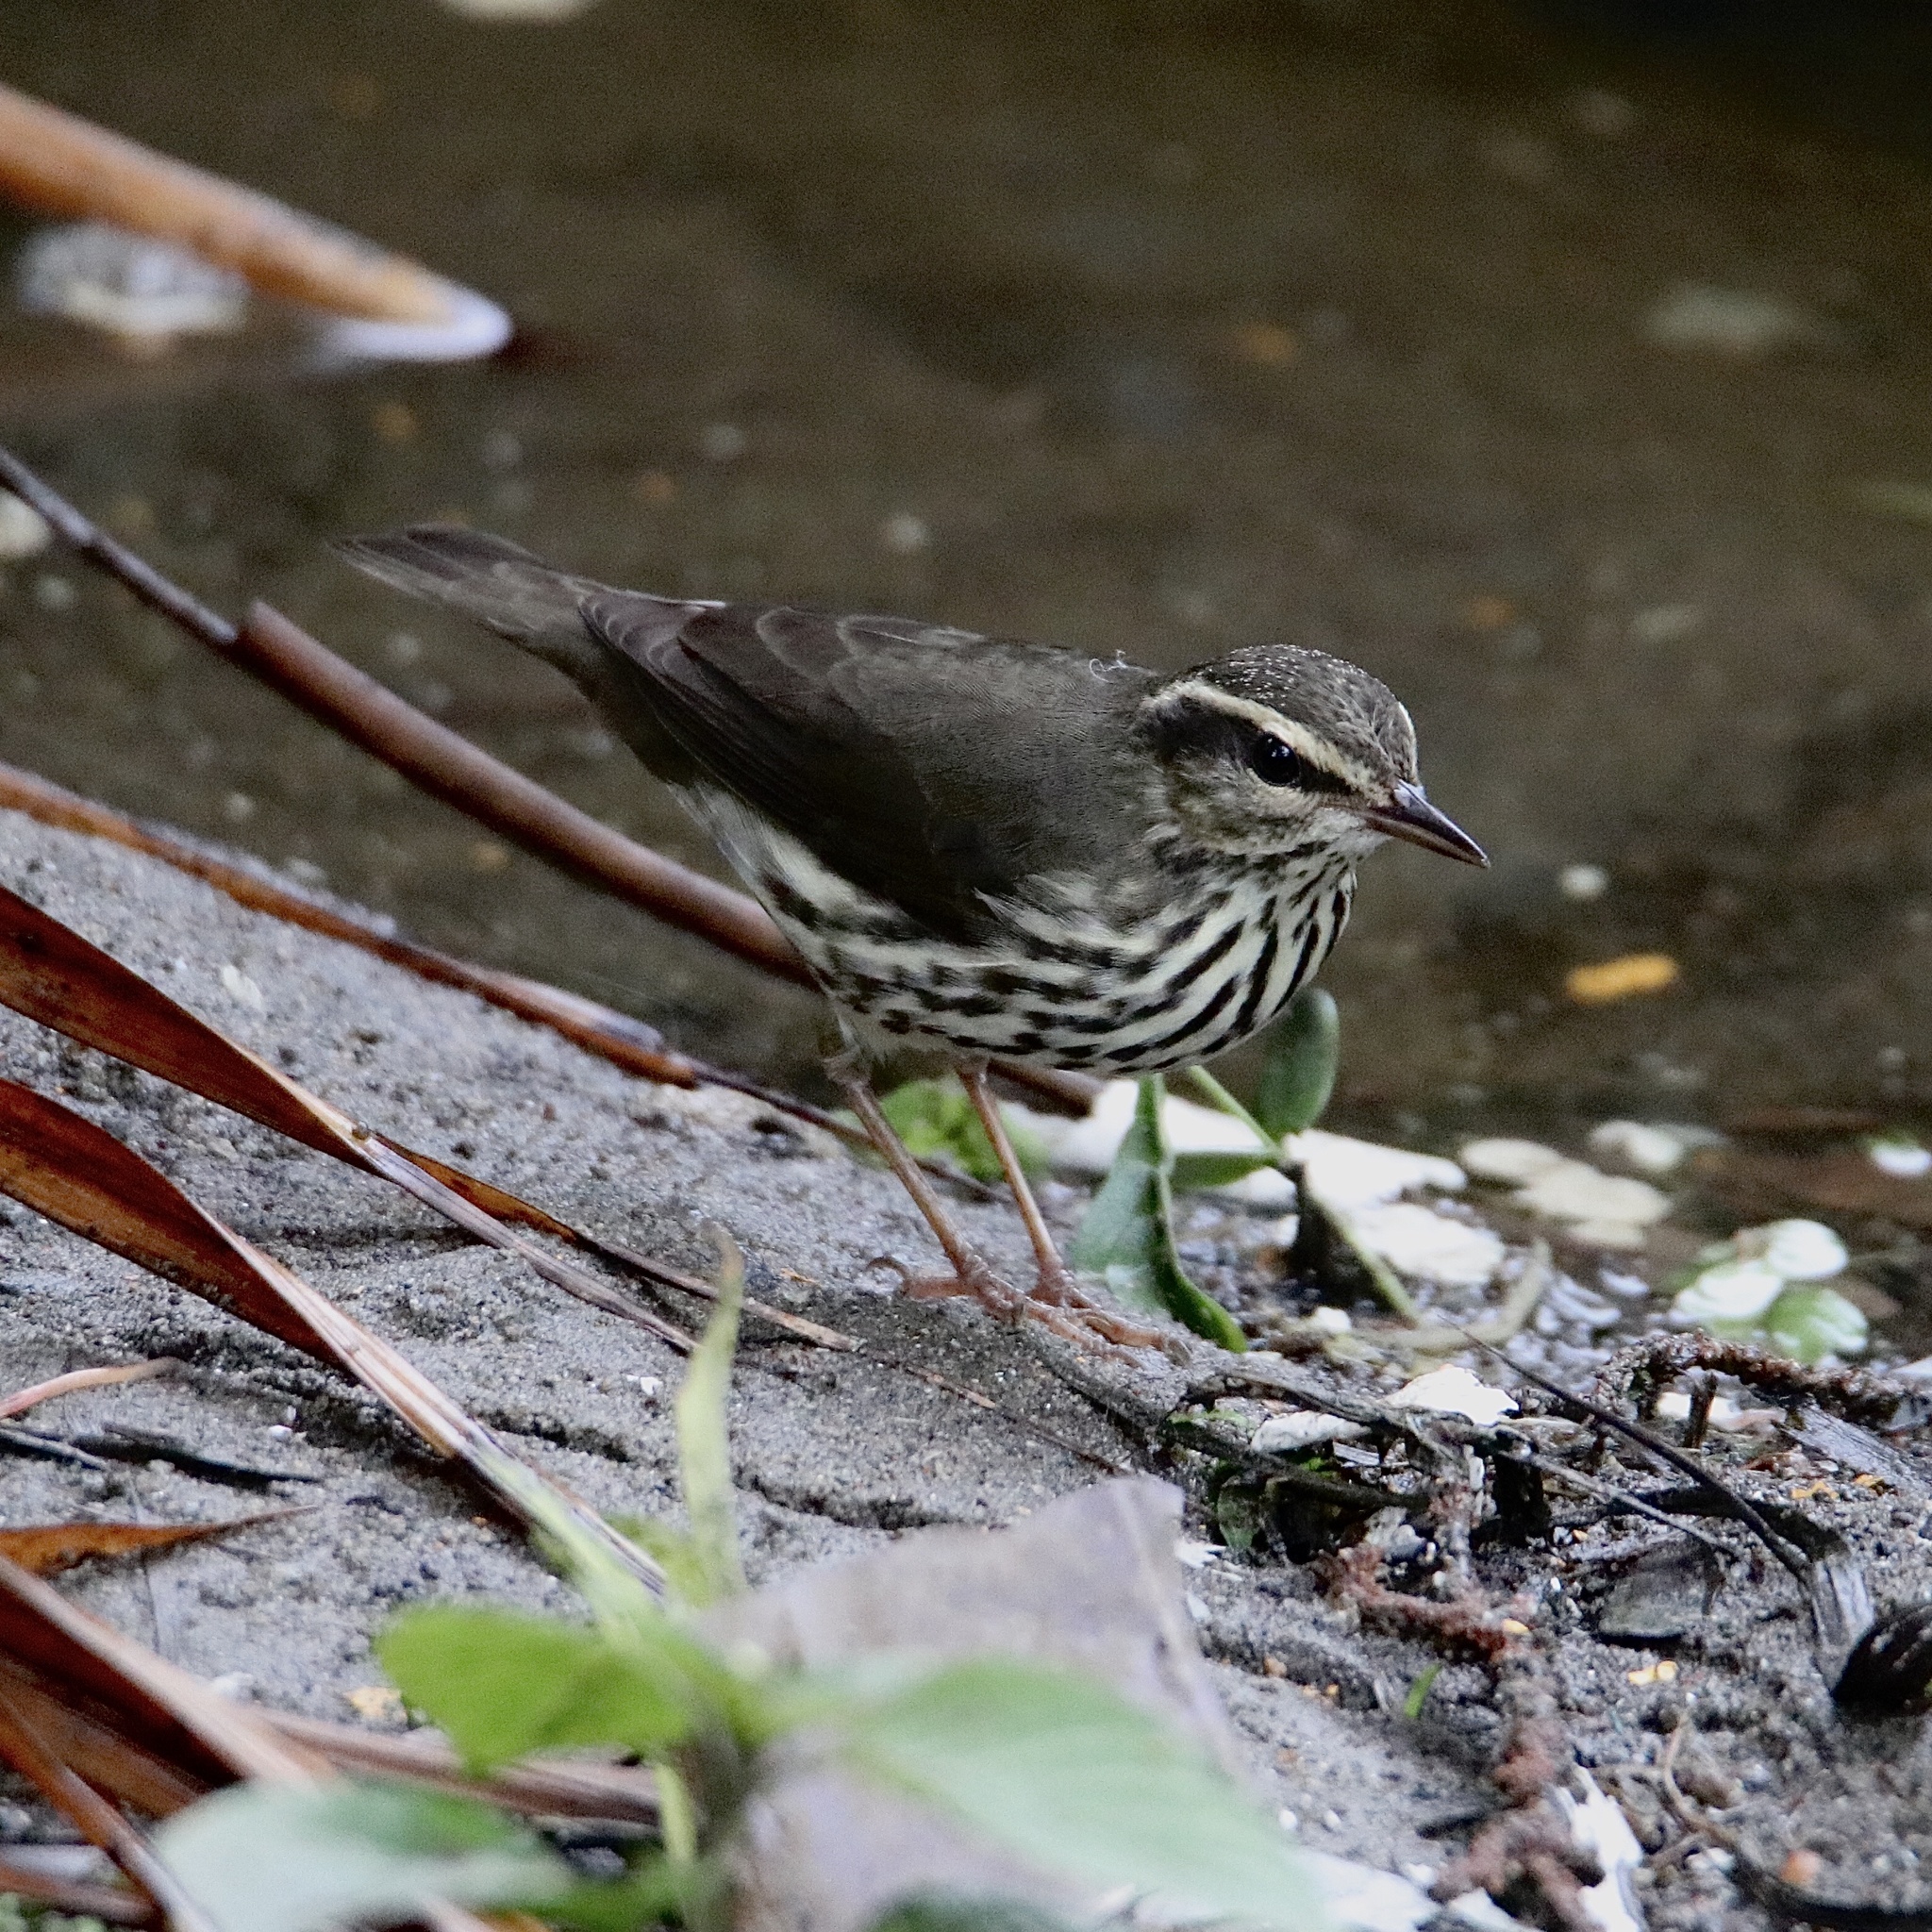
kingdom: Animalia
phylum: Chordata
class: Aves
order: Passeriformes
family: Parulidae
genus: Parkesia
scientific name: Parkesia noveboracensis
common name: Northern waterthrush
